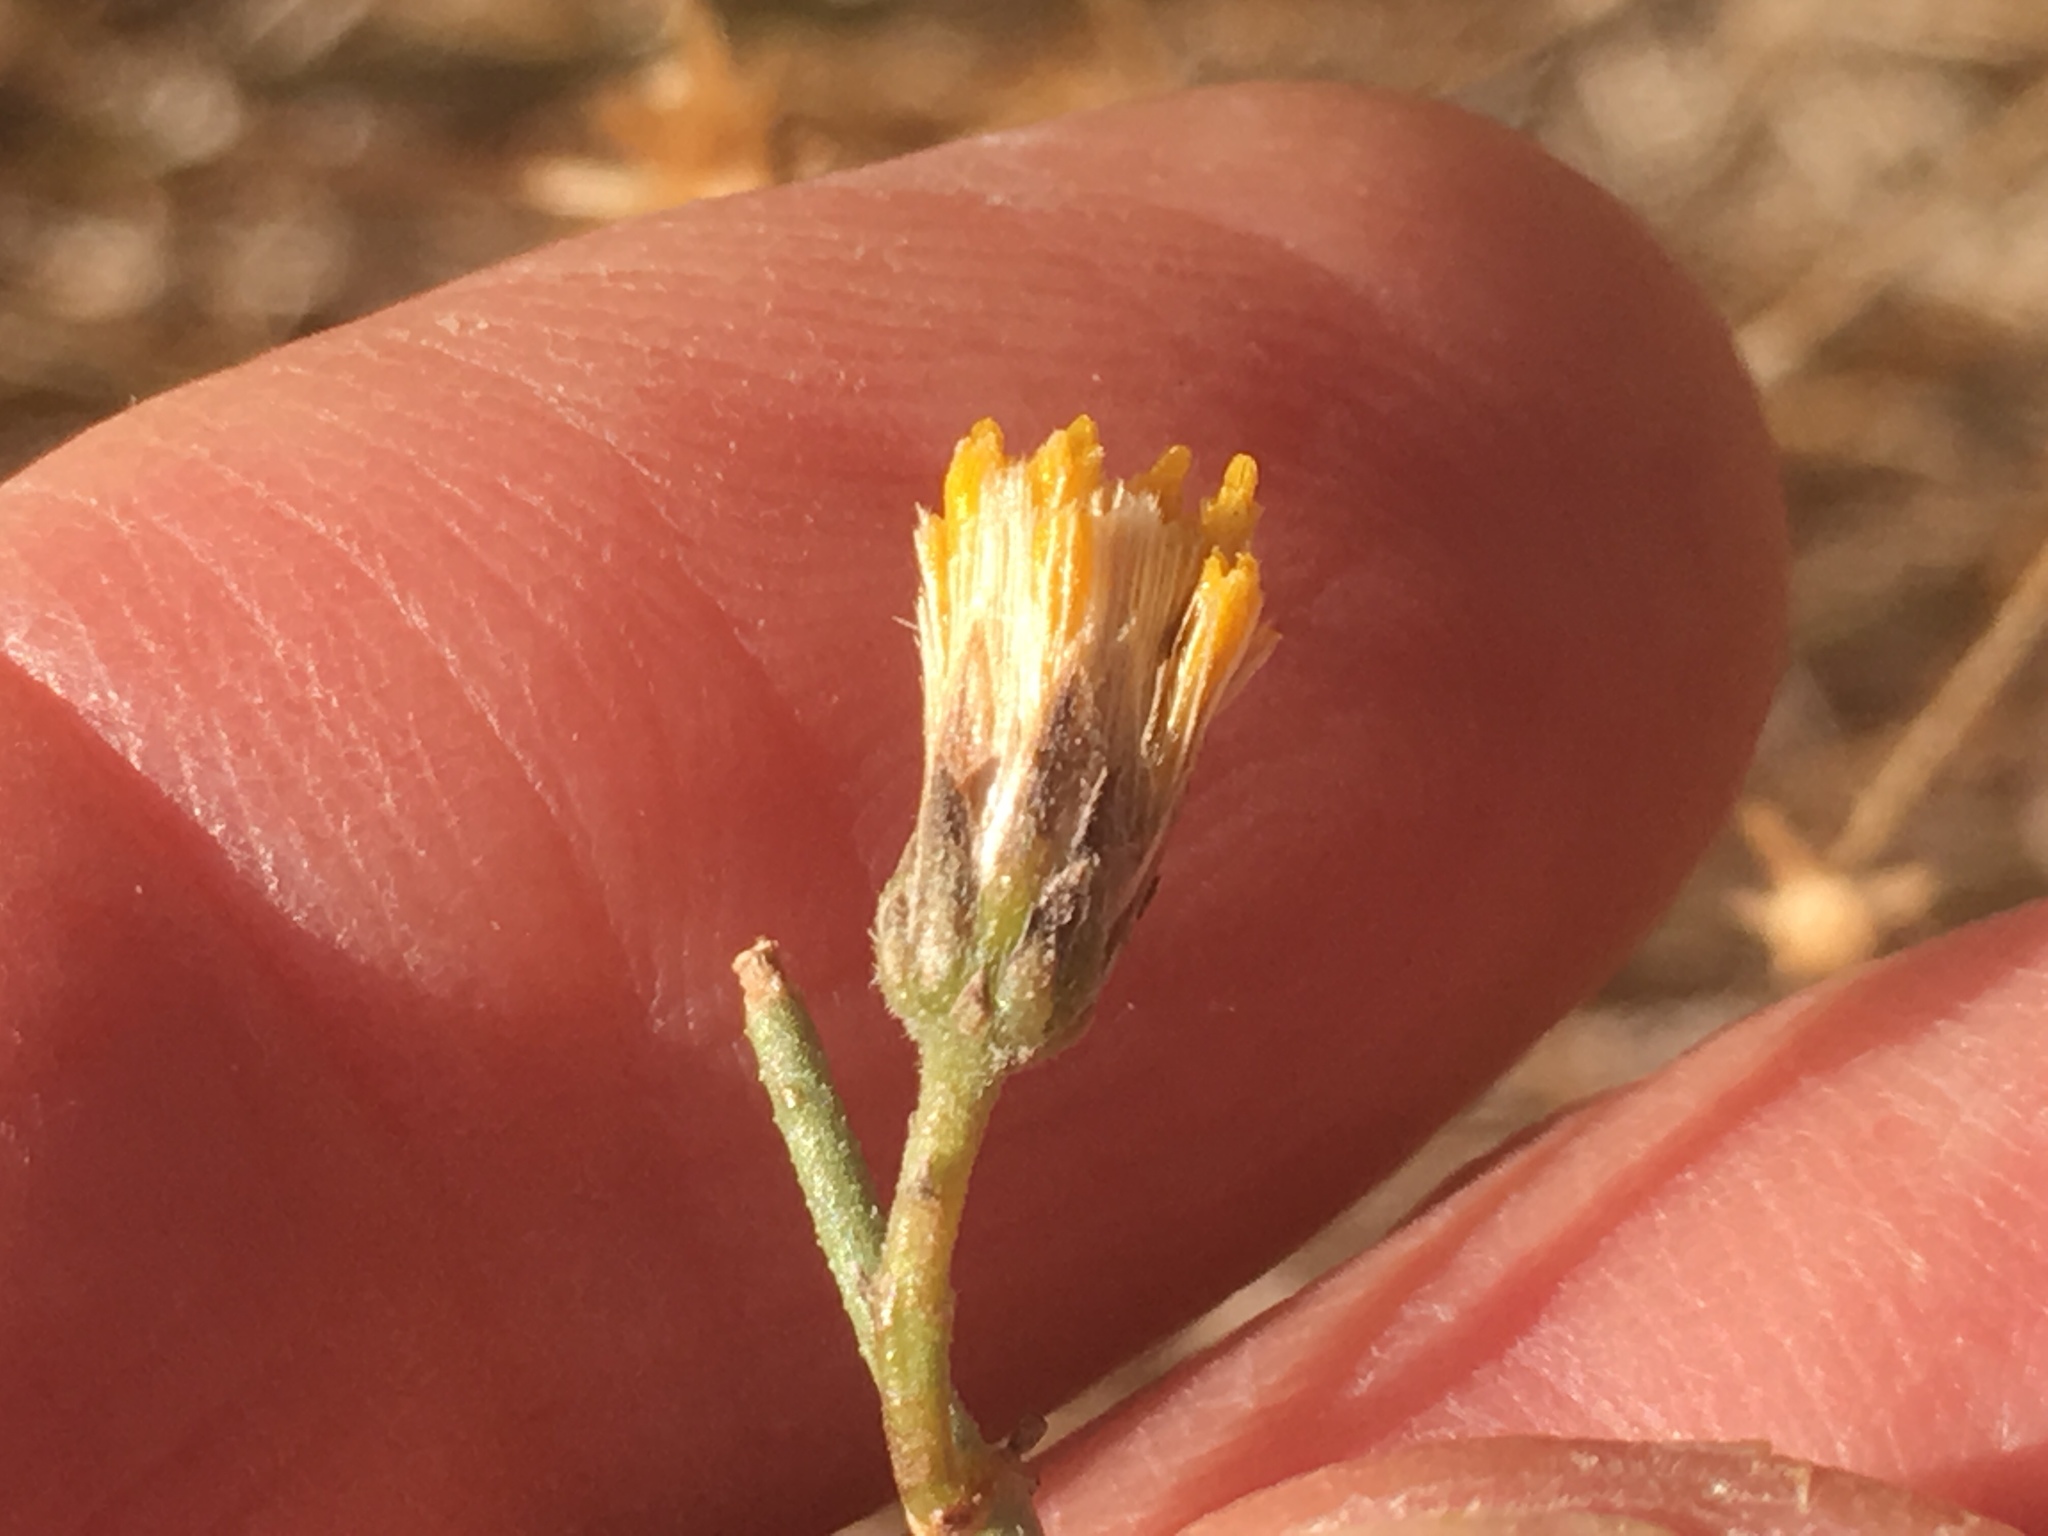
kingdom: Plantae
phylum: Tracheophyta
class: Magnoliopsida
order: Asterales
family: Asteraceae
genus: Bebbia
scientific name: Bebbia juncea
